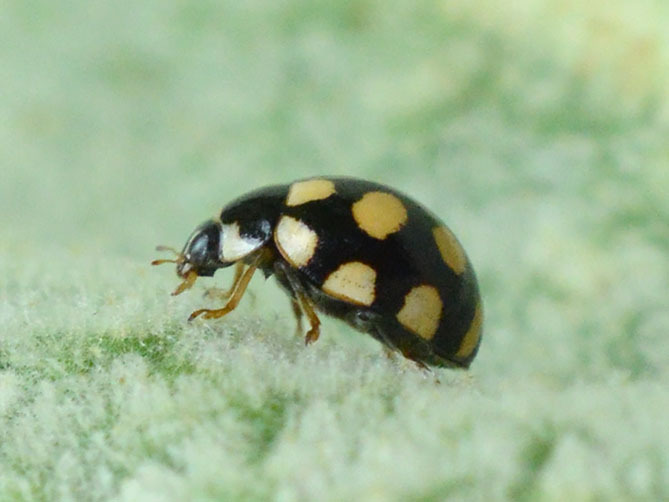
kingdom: Animalia
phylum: Arthropoda
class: Insecta
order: Coleoptera
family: Coccinellidae
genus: Coccinula
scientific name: Coccinula quatuordecimpustulata
